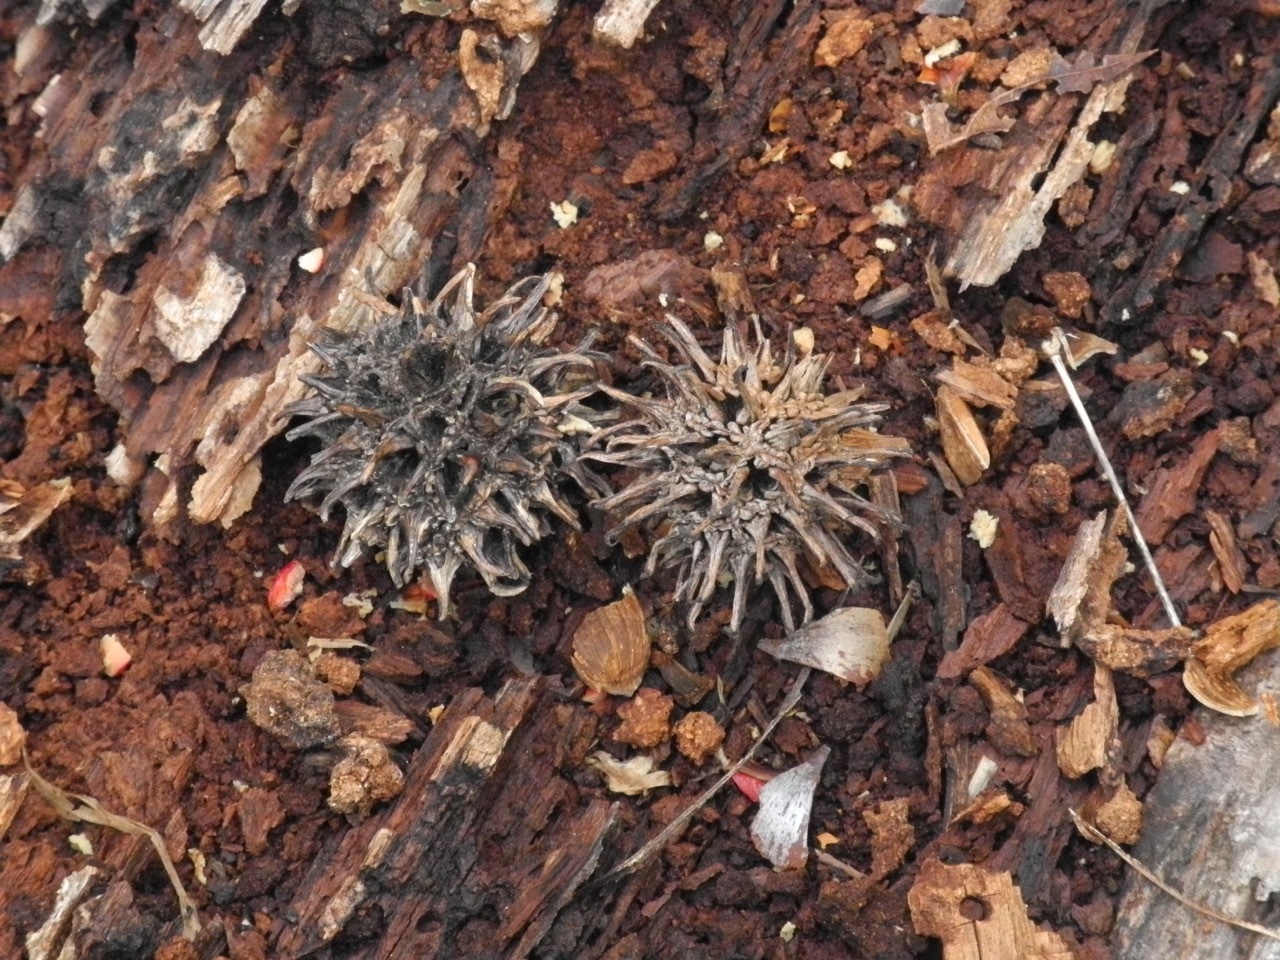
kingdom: Plantae
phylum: Tracheophyta
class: Magnoliopsida
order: Saxifragales
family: Altingiaceae
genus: Liquidambar
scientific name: Liquidambar styraciflua
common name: Sweet gum
